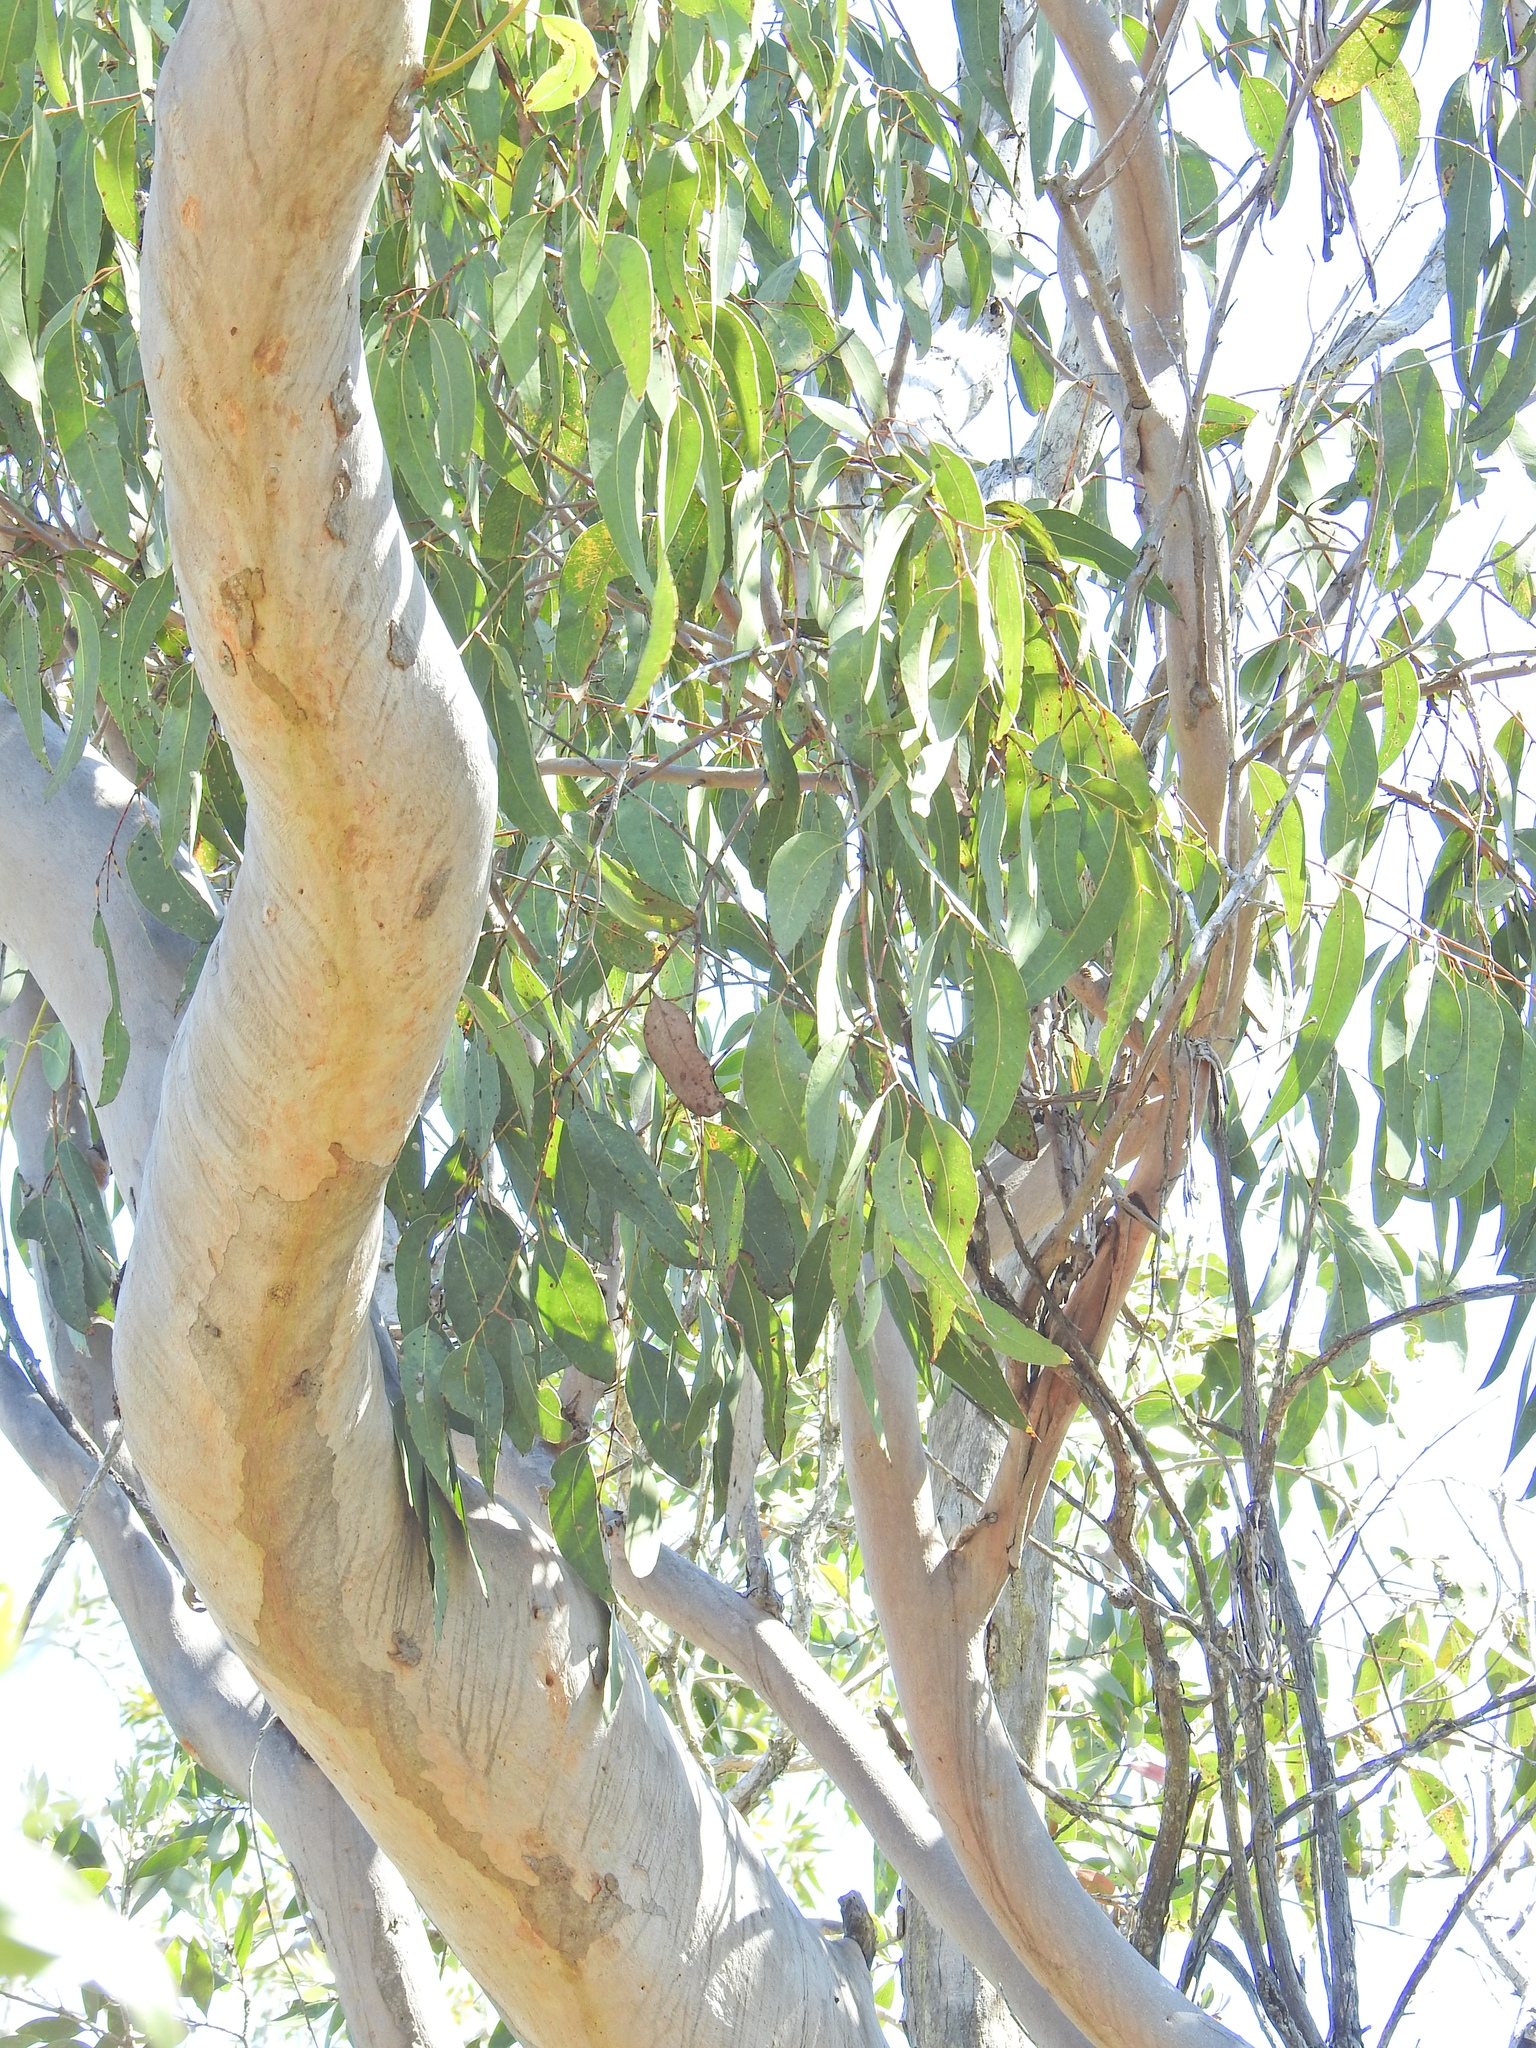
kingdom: Plantae
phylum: Tracheophyta
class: Magnoliopsida
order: Myrtales
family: Myrtaceae
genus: Eucalyptus
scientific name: Eucalyptus bancroftii
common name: Blue gum
